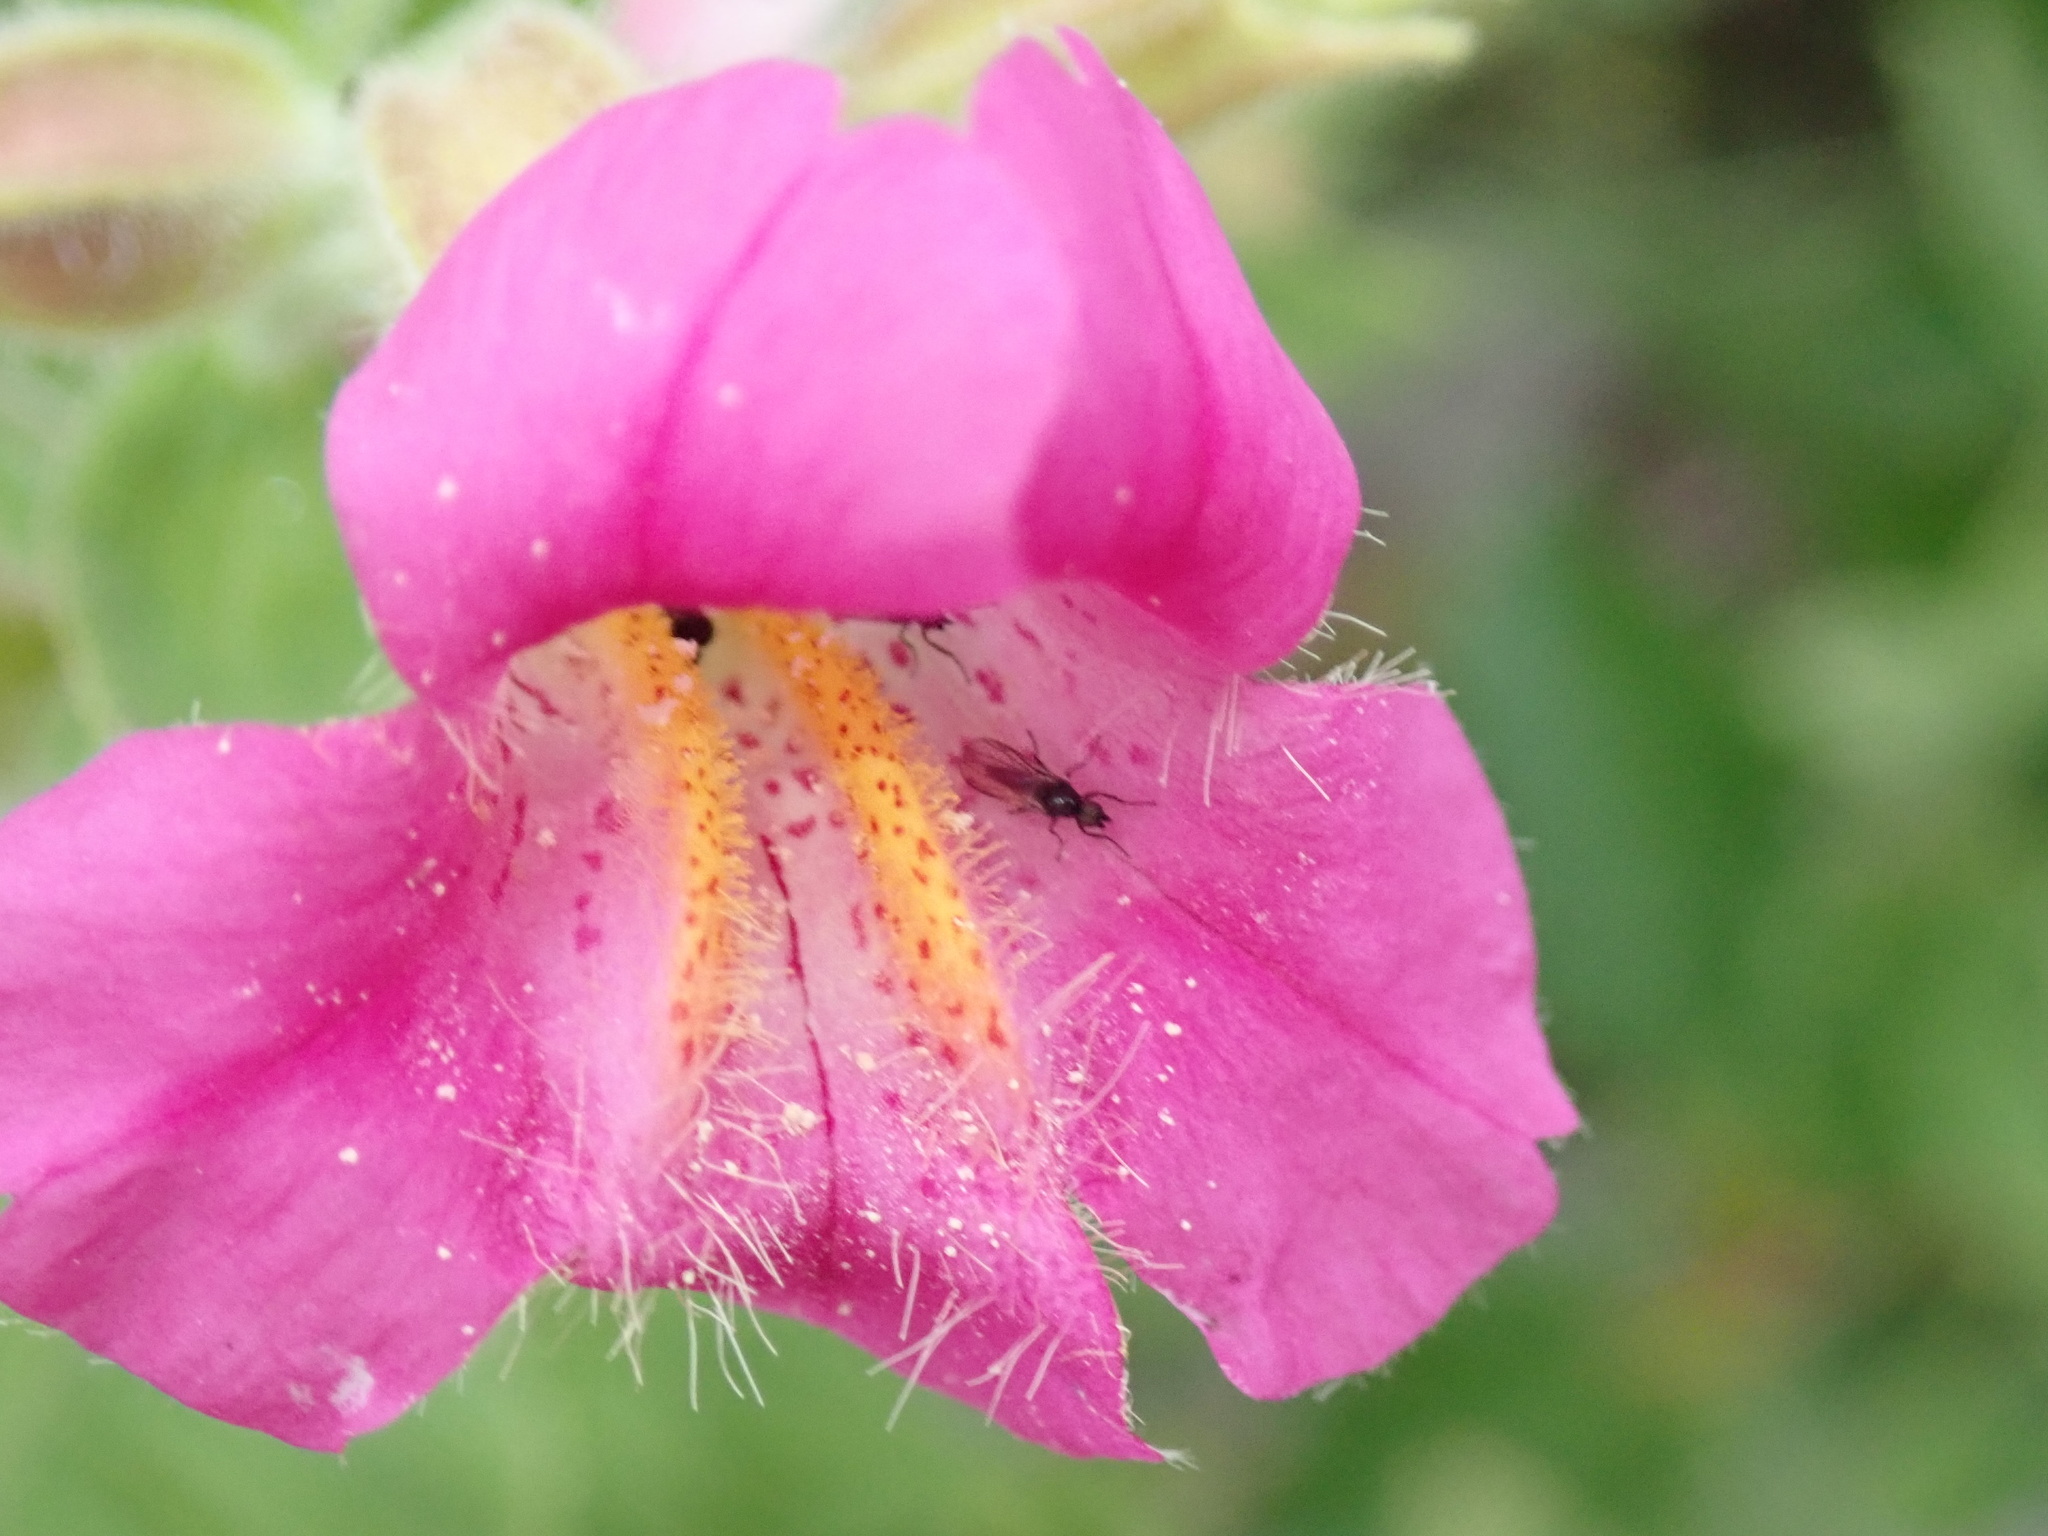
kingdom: Plantae
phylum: Tracheophyta
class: Magnoliopsida
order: Lamiales
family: Phrymaceae
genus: Erythranthe
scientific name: Erythranthe lewisii
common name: Lewis's monkey-flower
